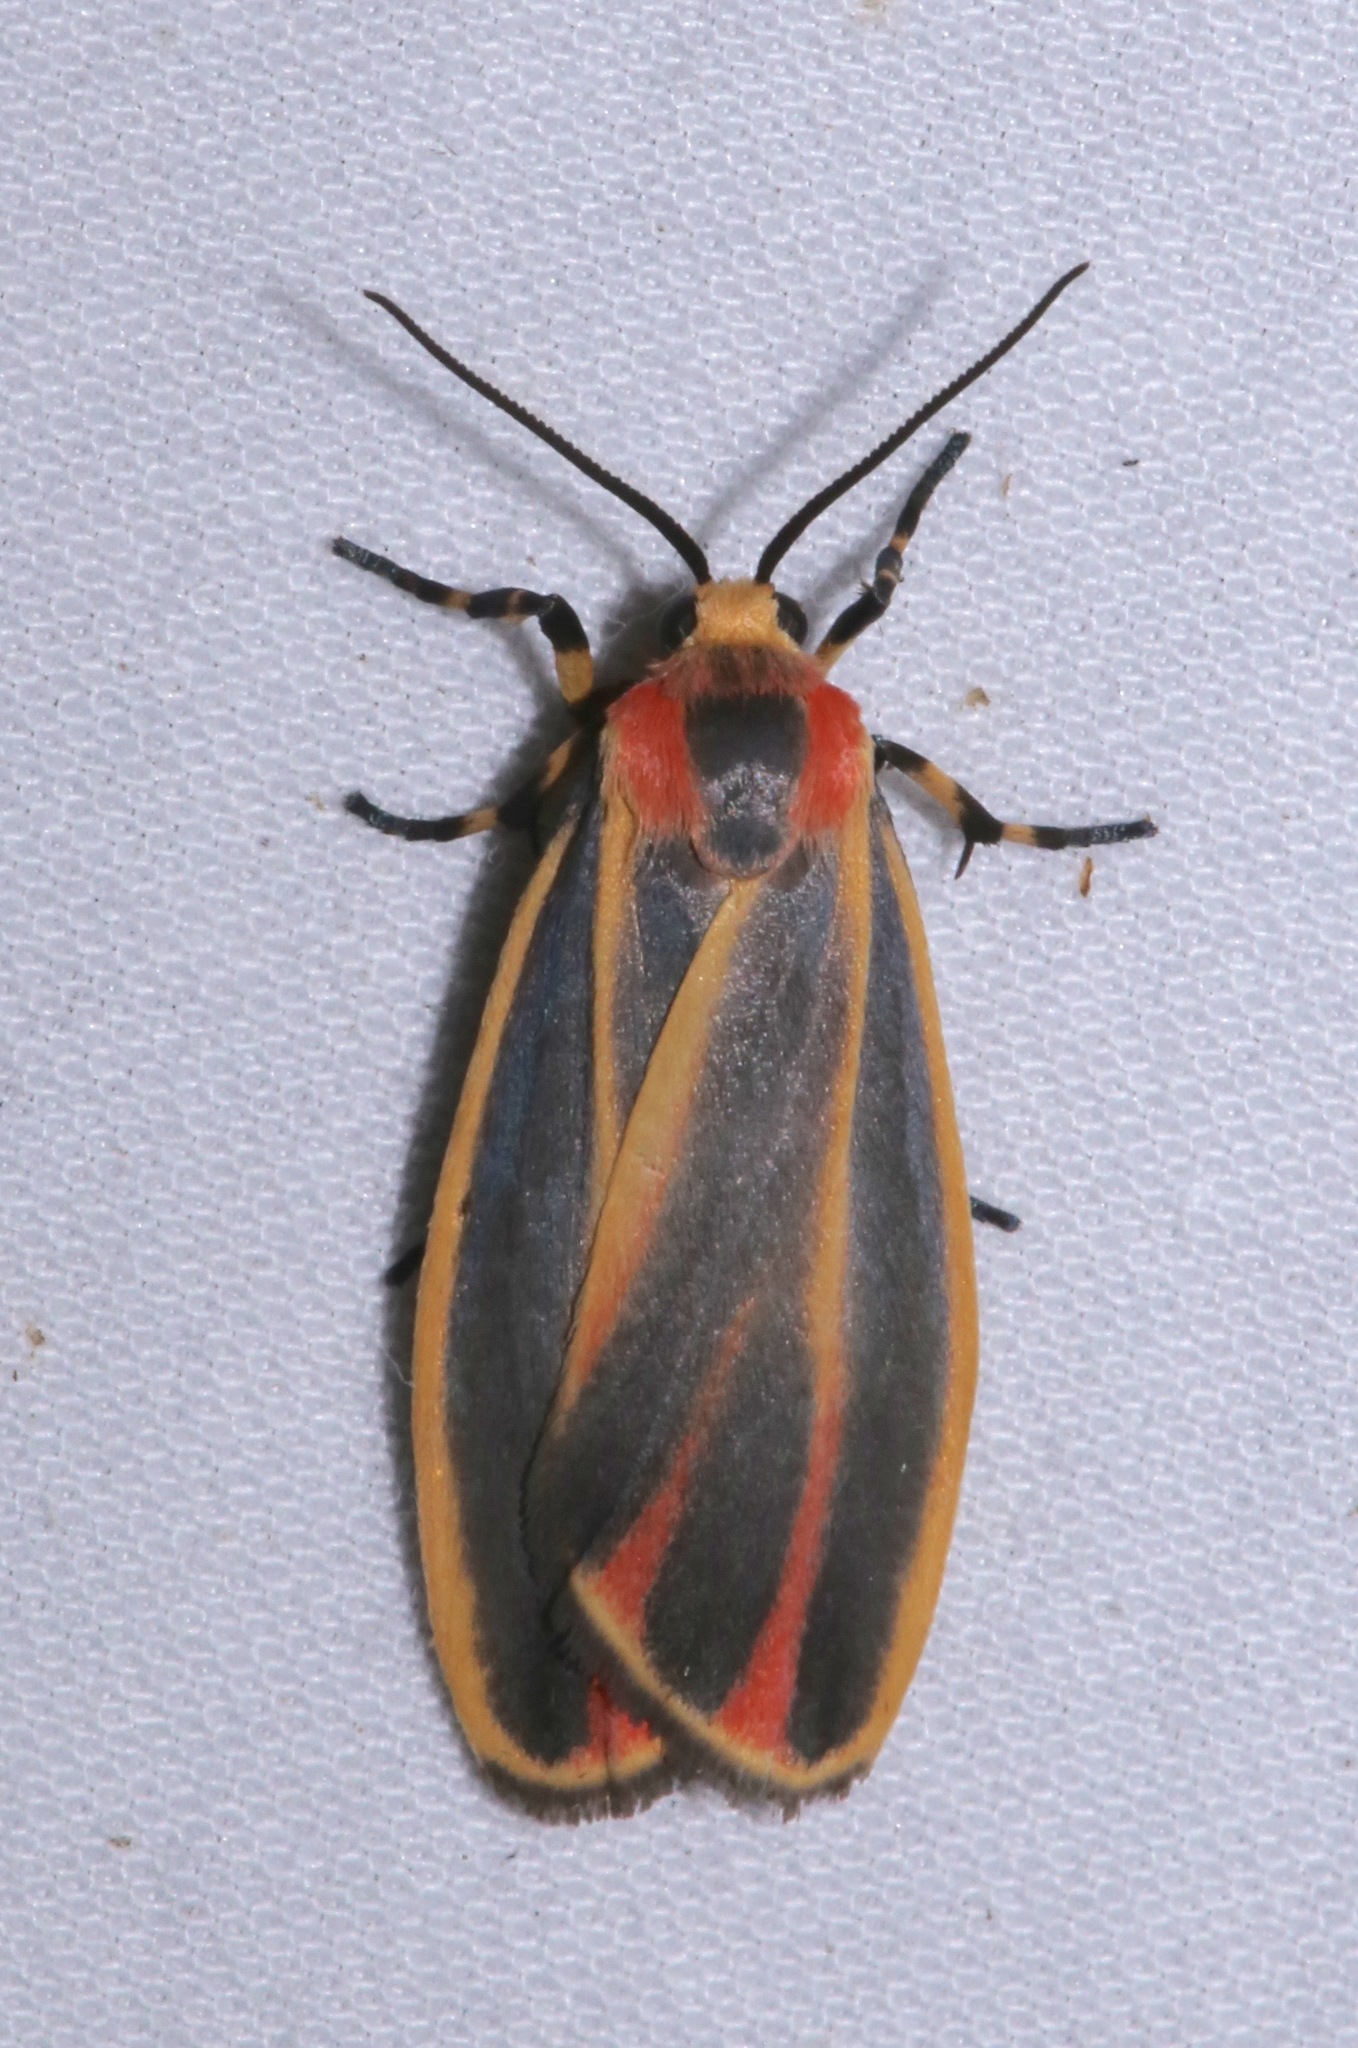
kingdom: Animalia
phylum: Arthropoda
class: Insecta
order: Lepidoptera
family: Erebidae
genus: Hypoprepia
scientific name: Hypoprepia fucosa
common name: Painted lichen moth
